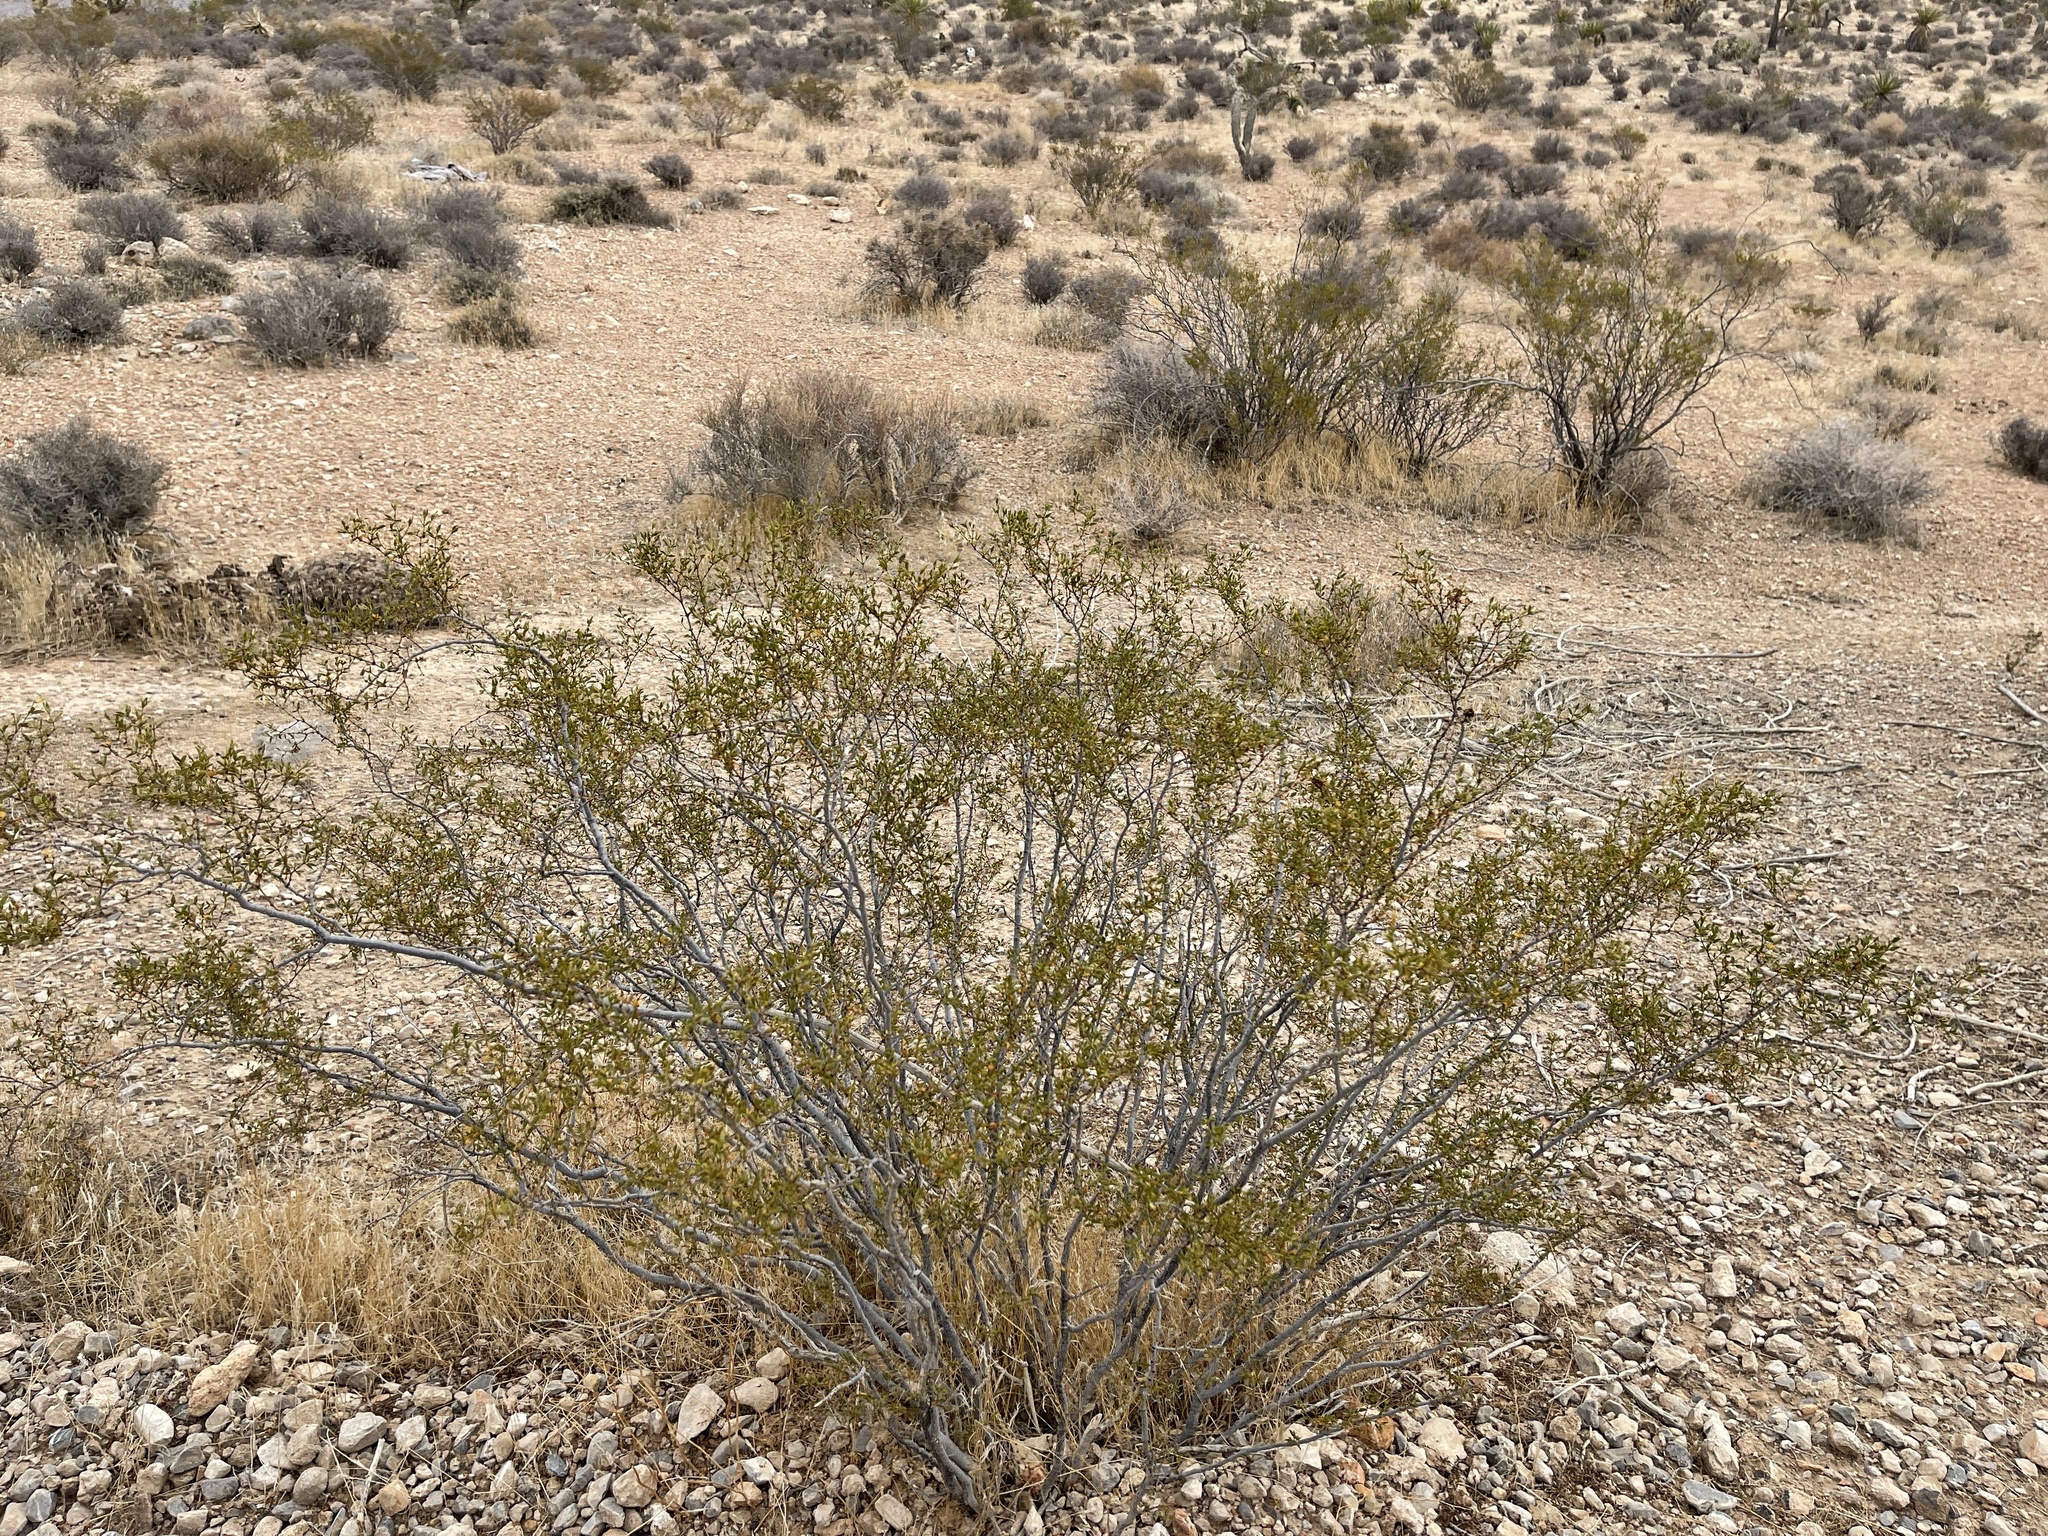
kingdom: Plantae
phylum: Tracheophyta
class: Magnoliopsida
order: Zygophyllales
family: Zygophyllaceae
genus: Larrea
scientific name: Larrea tridentata
